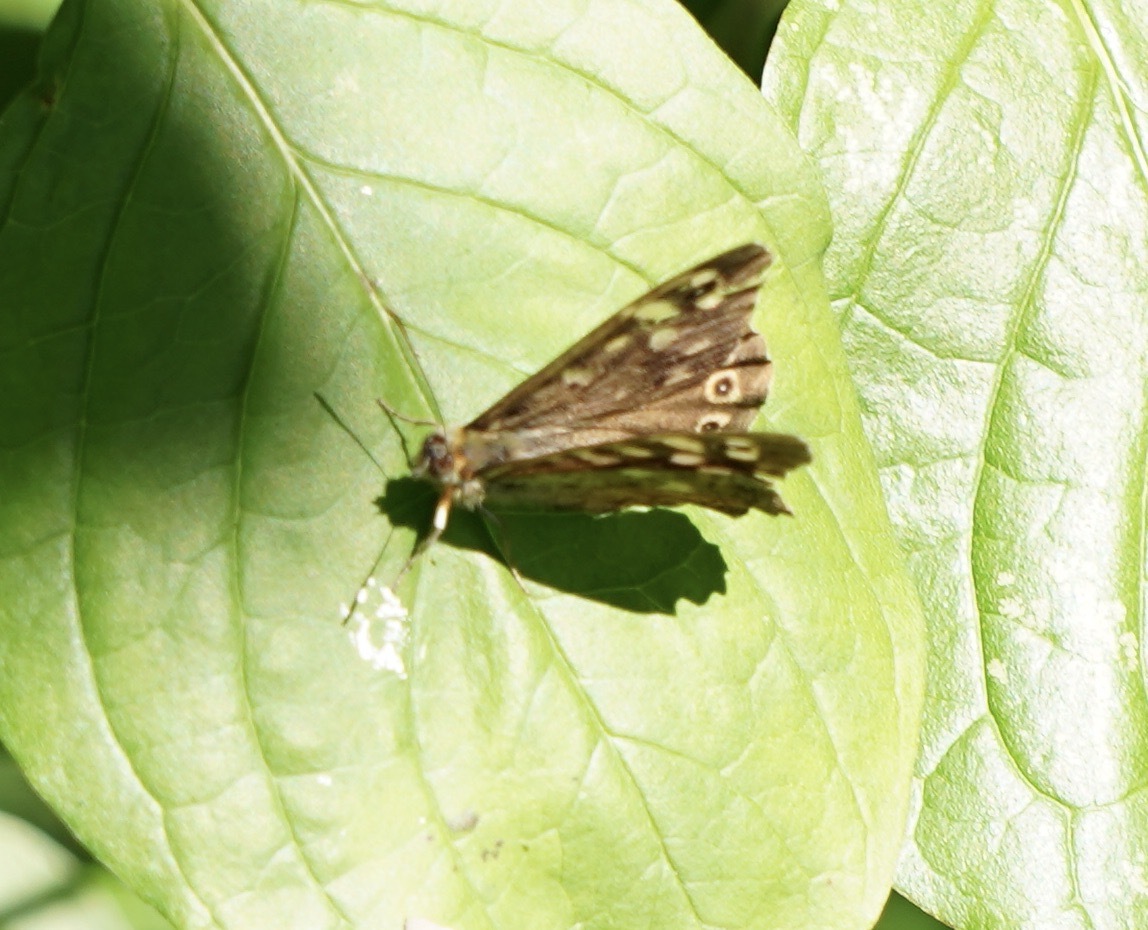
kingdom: Animalia
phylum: Arthropoda
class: Insecta
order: Lepidoptera
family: Nymphalidae
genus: Pararge
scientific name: Pararge aegeria
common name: Speckled wood
